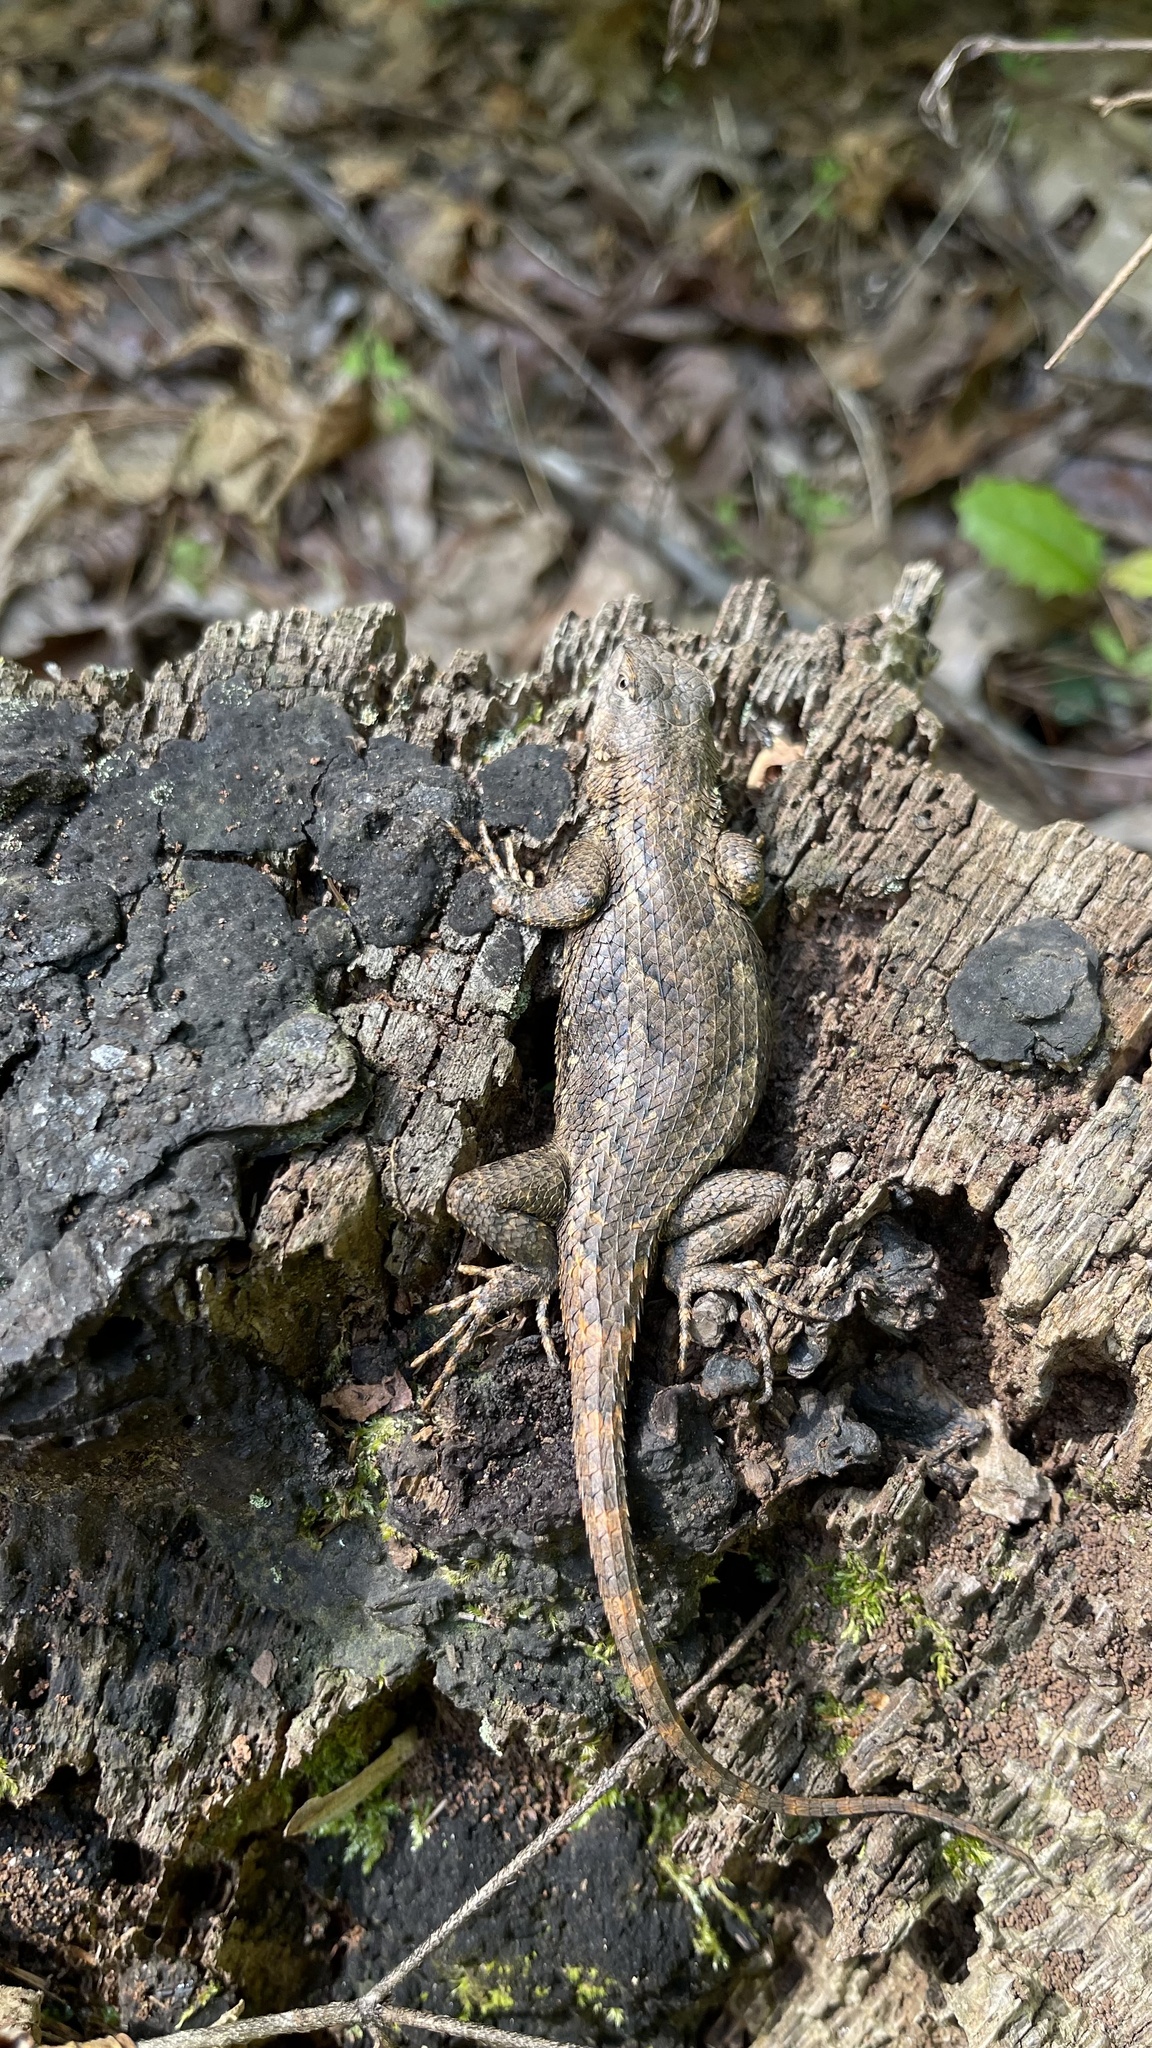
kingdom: Animalia
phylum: Chordata
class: Squamata
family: Phrynosomatidae
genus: Sceloporus
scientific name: Sceloporus undulatus
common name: Eastern fence lizard
